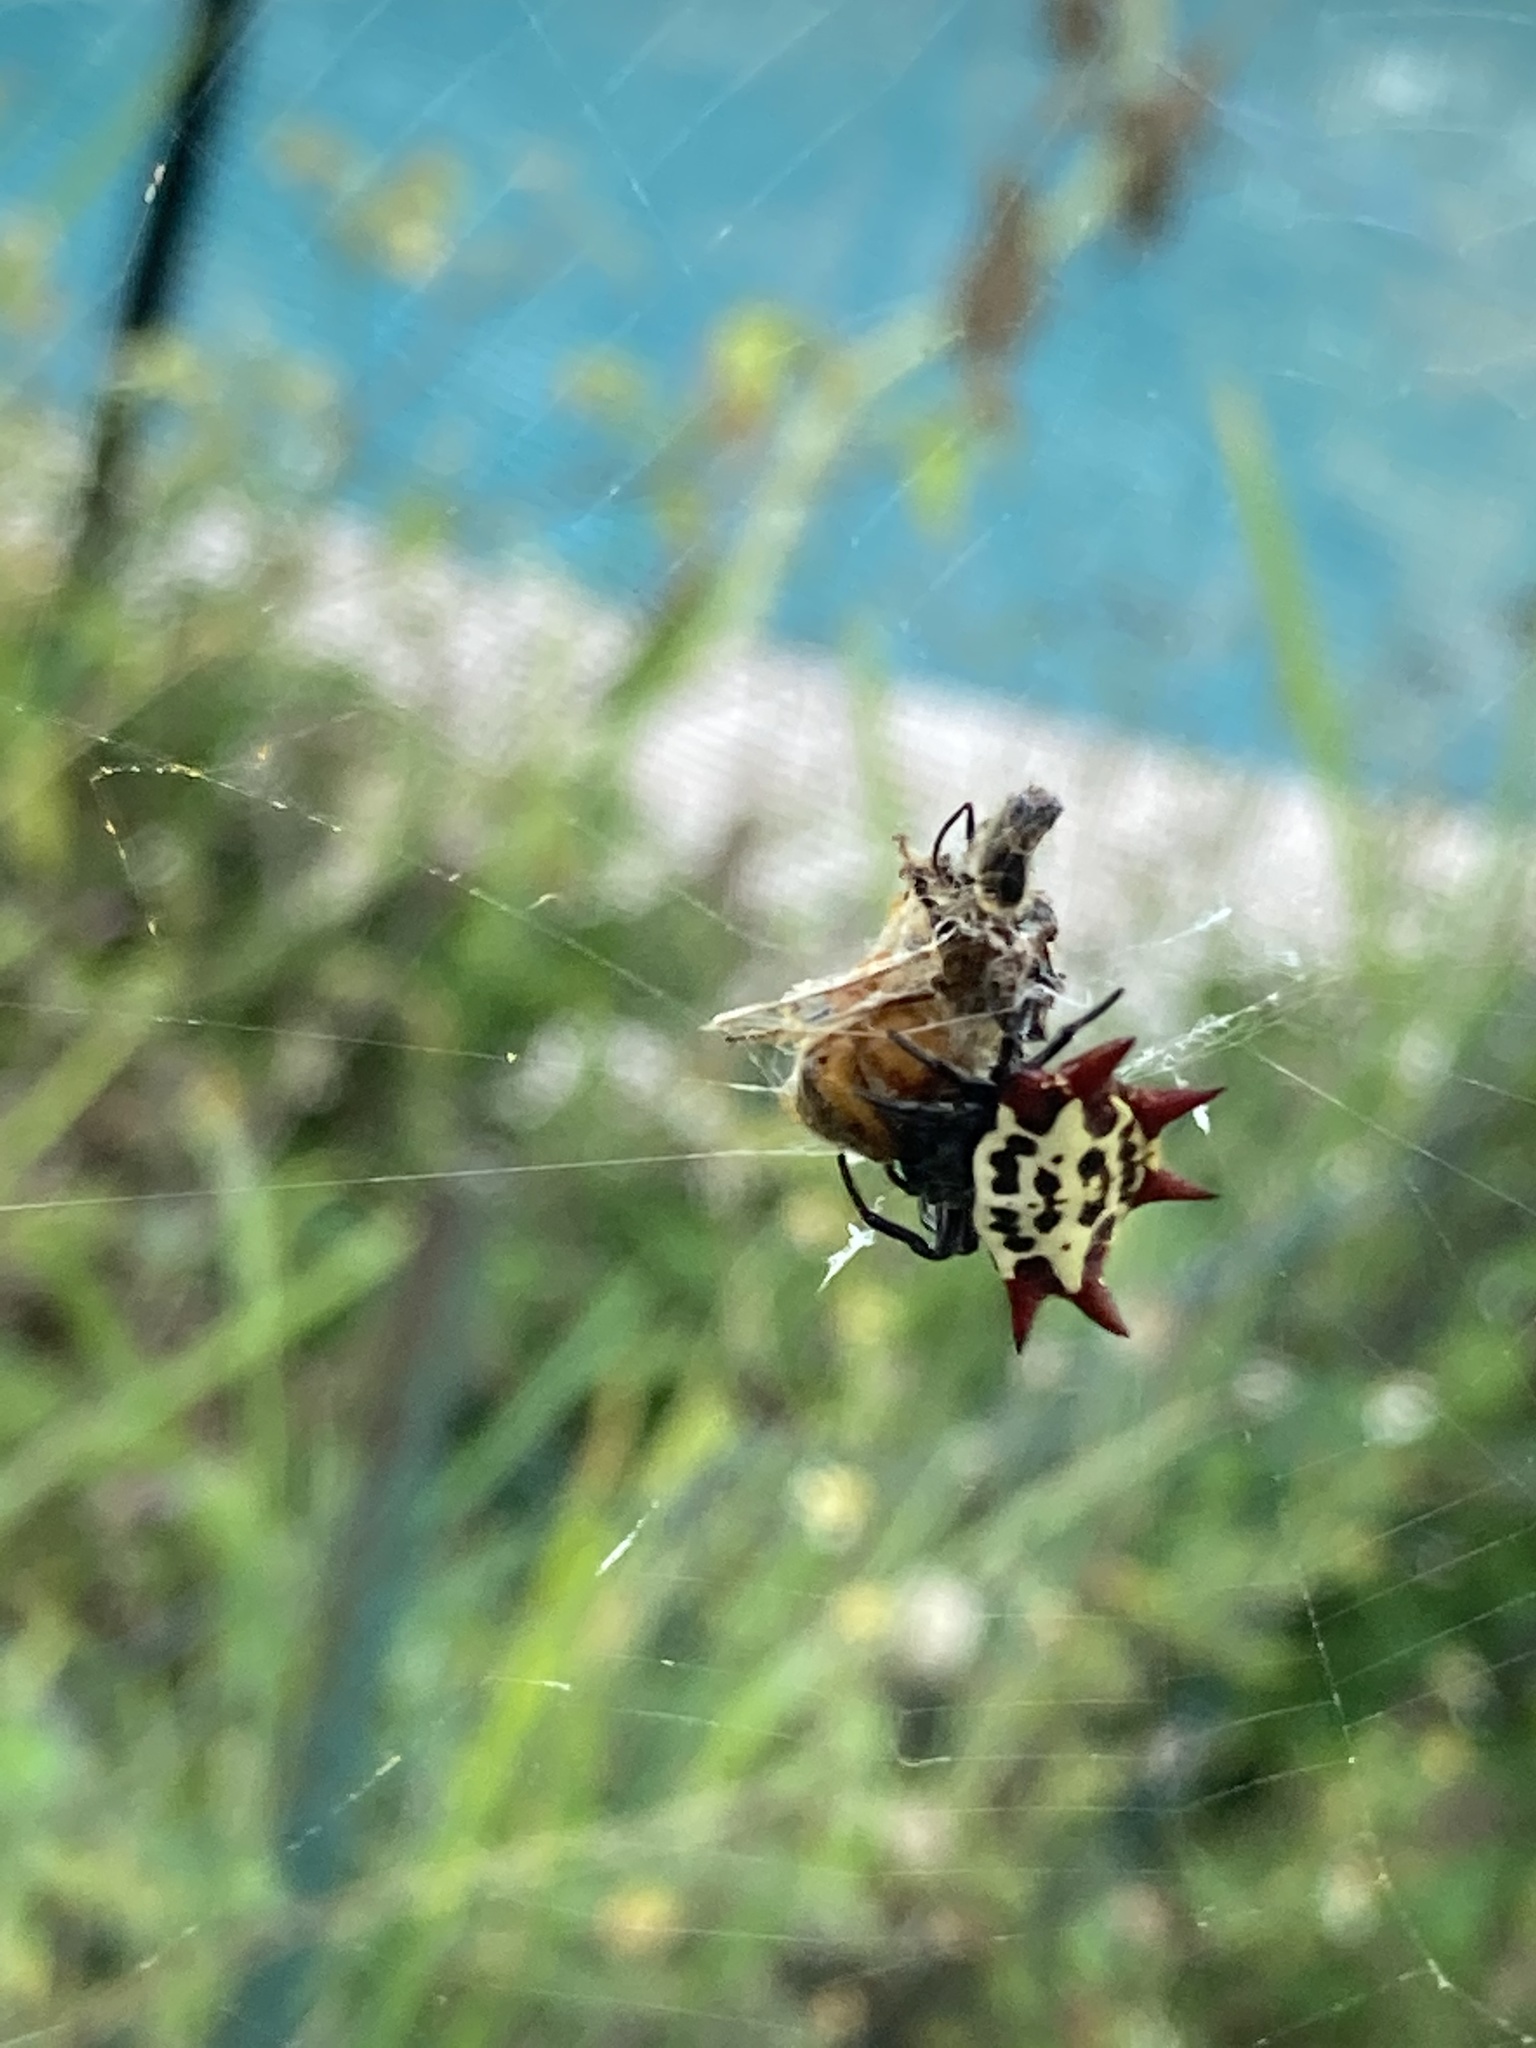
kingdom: Animalia
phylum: Arthropoda
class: Arachnida
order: Araneae
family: Araneidae
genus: Gasteracantha
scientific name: Gasteracantha cancriformis
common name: Orb weavers
